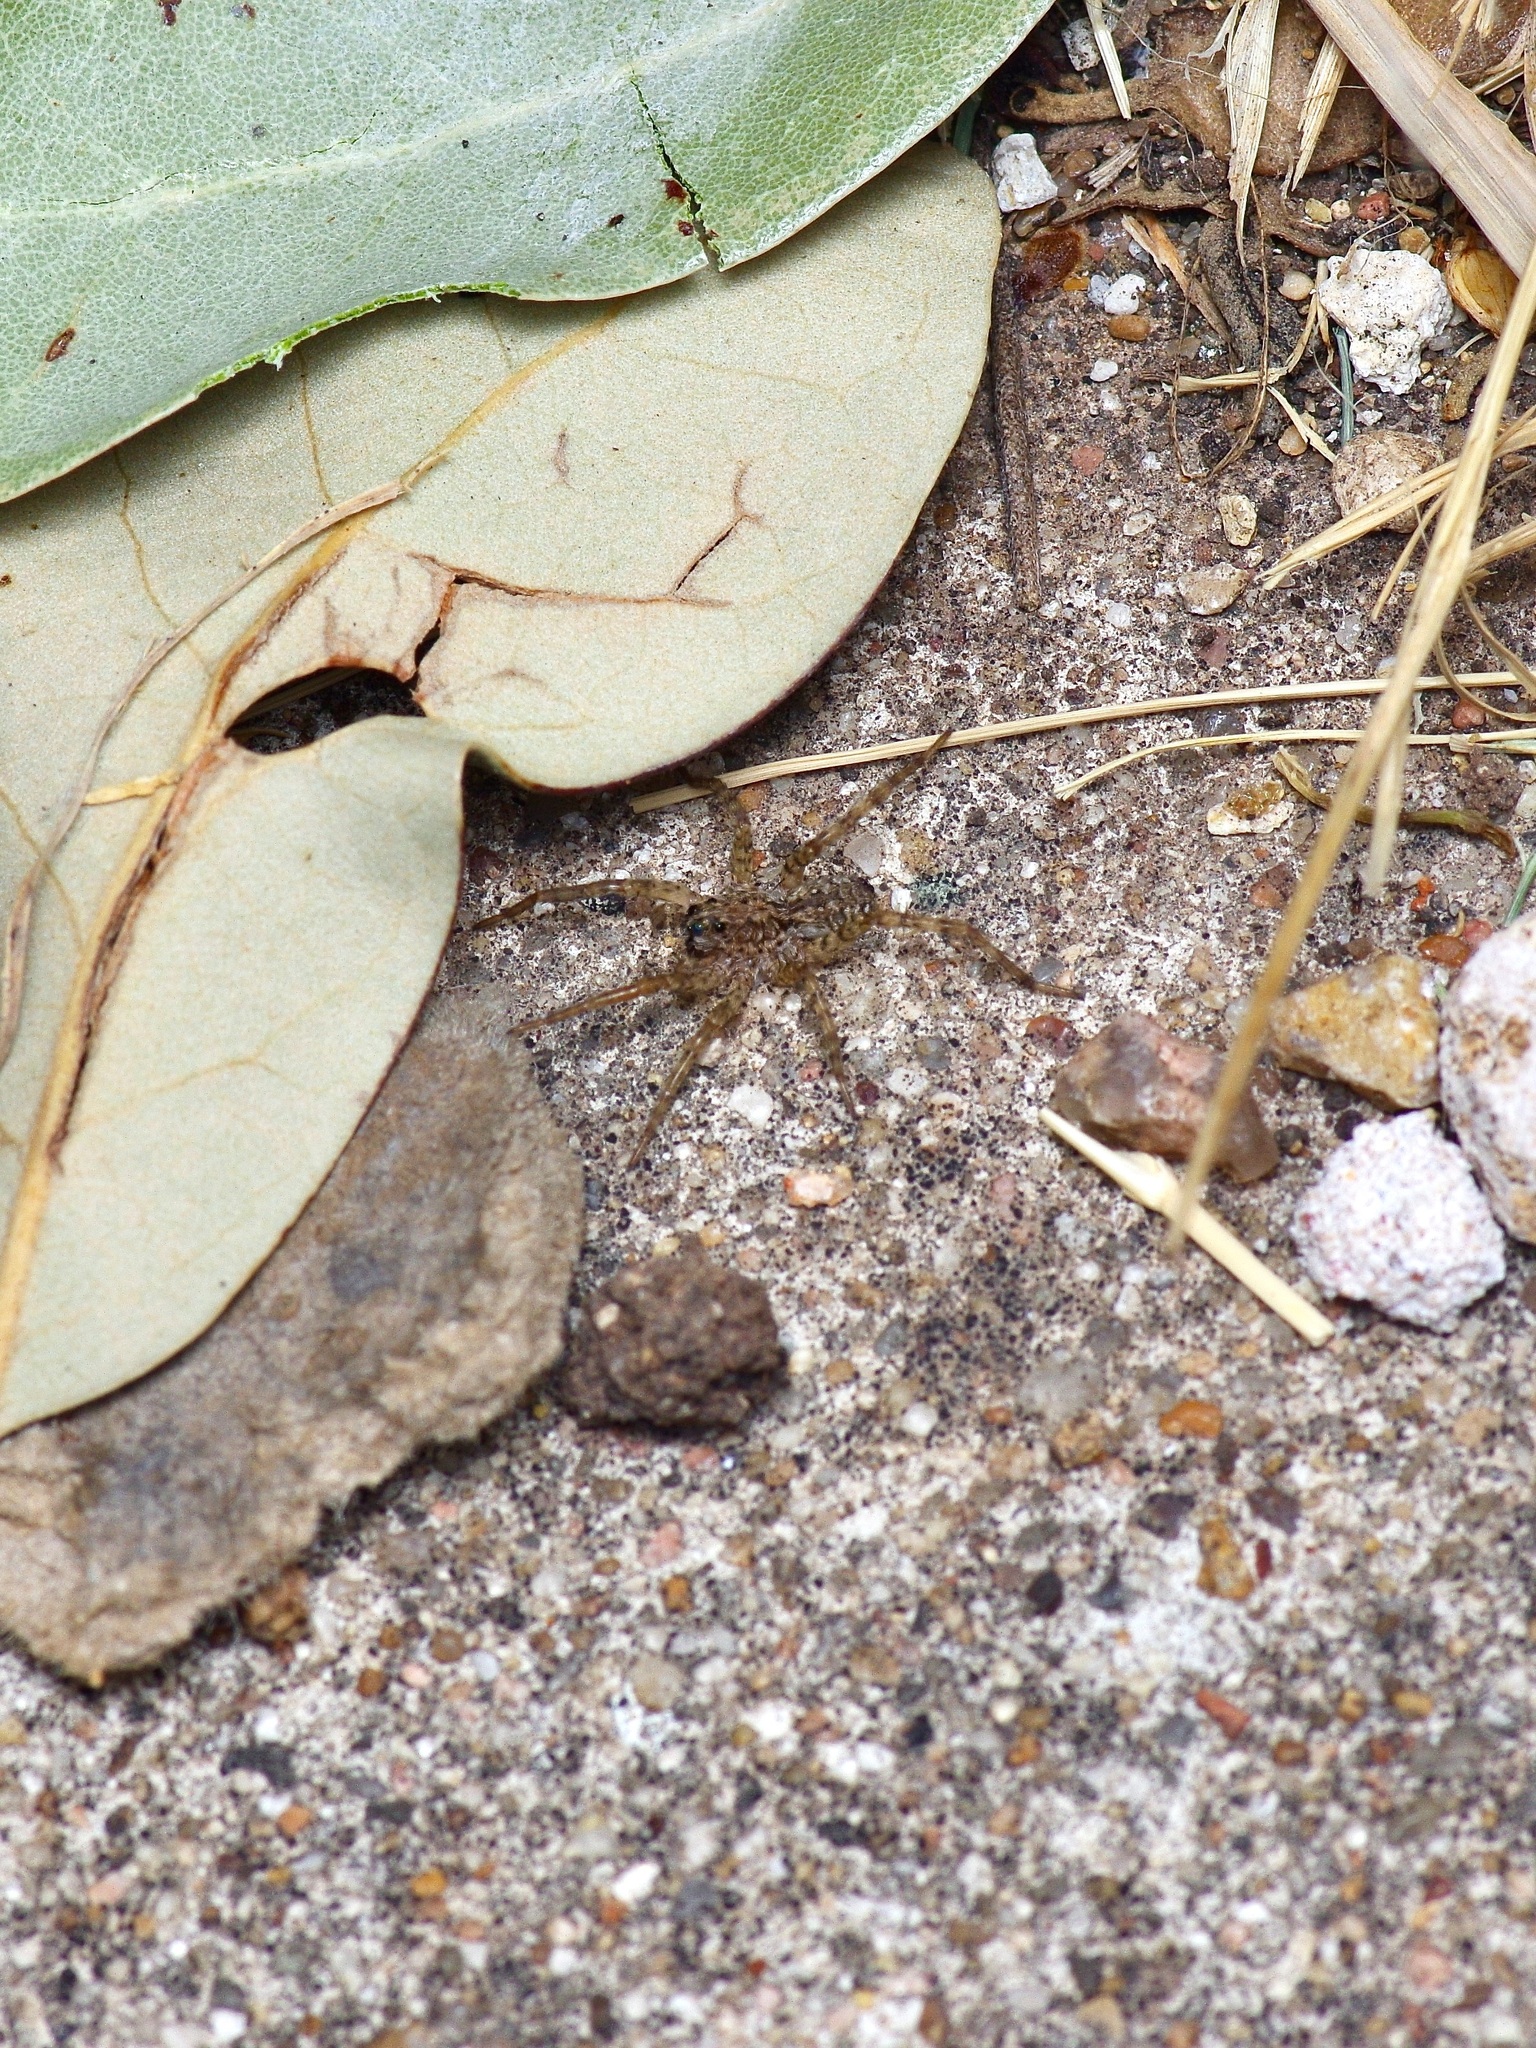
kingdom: Animalia
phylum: Arthropoda
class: Arachnida
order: Araneae
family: Lycosidae
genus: Hogna
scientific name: Hogna antelucana
